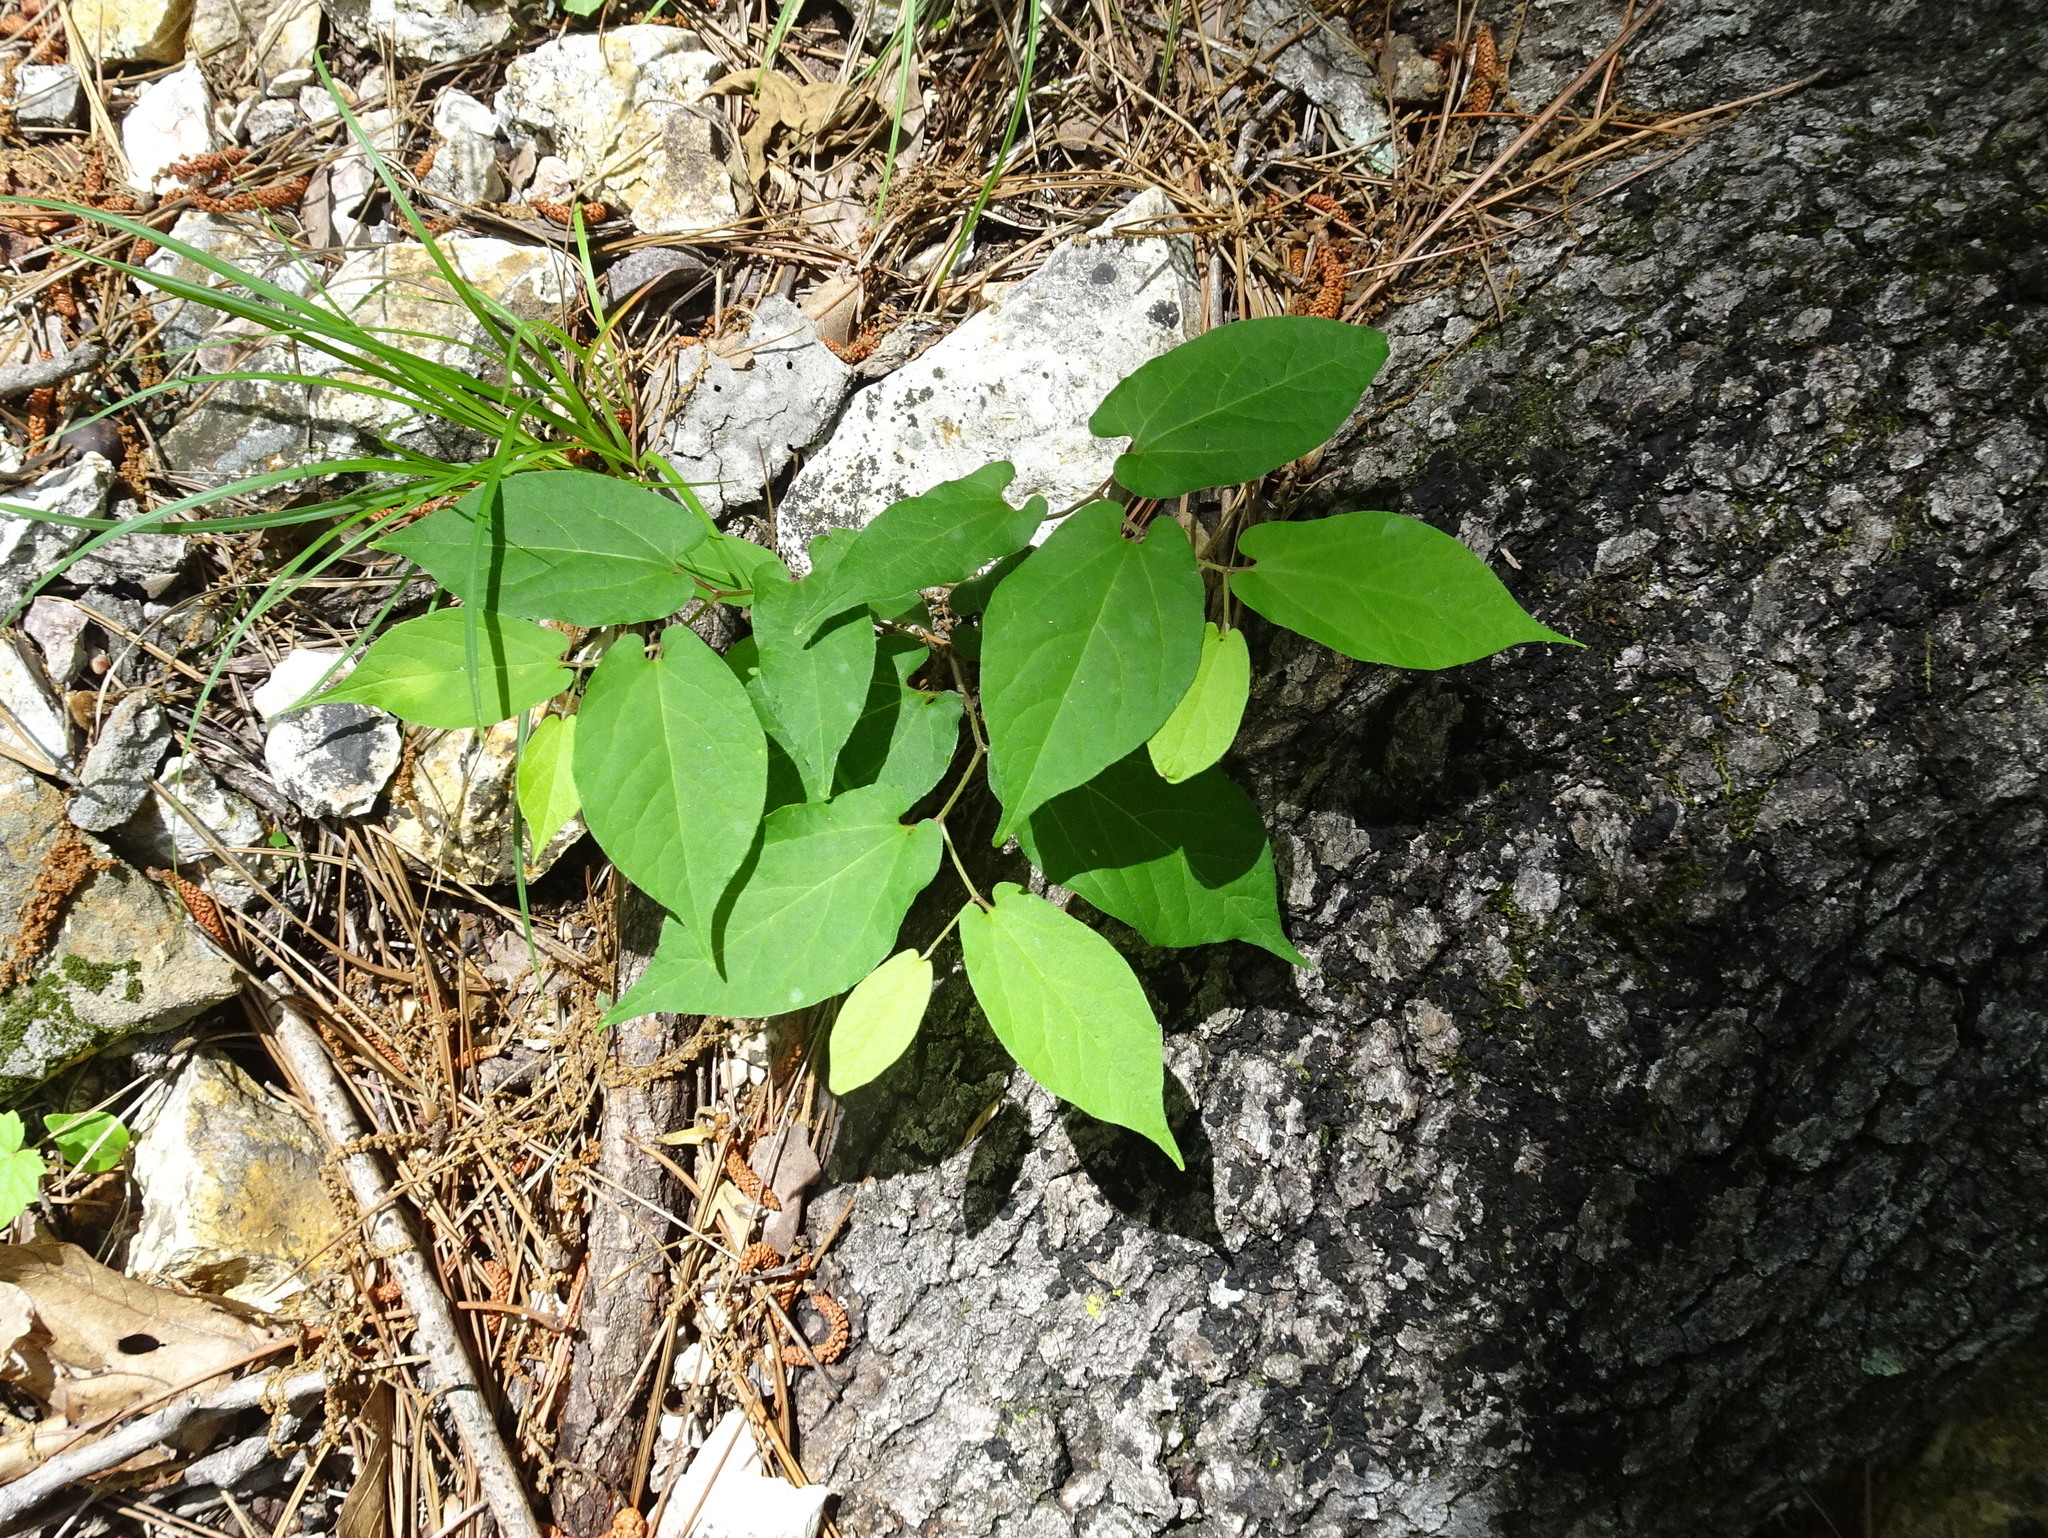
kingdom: Plantae
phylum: Tracheophyta
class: Magnoliopsida
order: Piperales
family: Aristolochiaceae
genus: Endodeca
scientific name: Endodeca serpentaria
